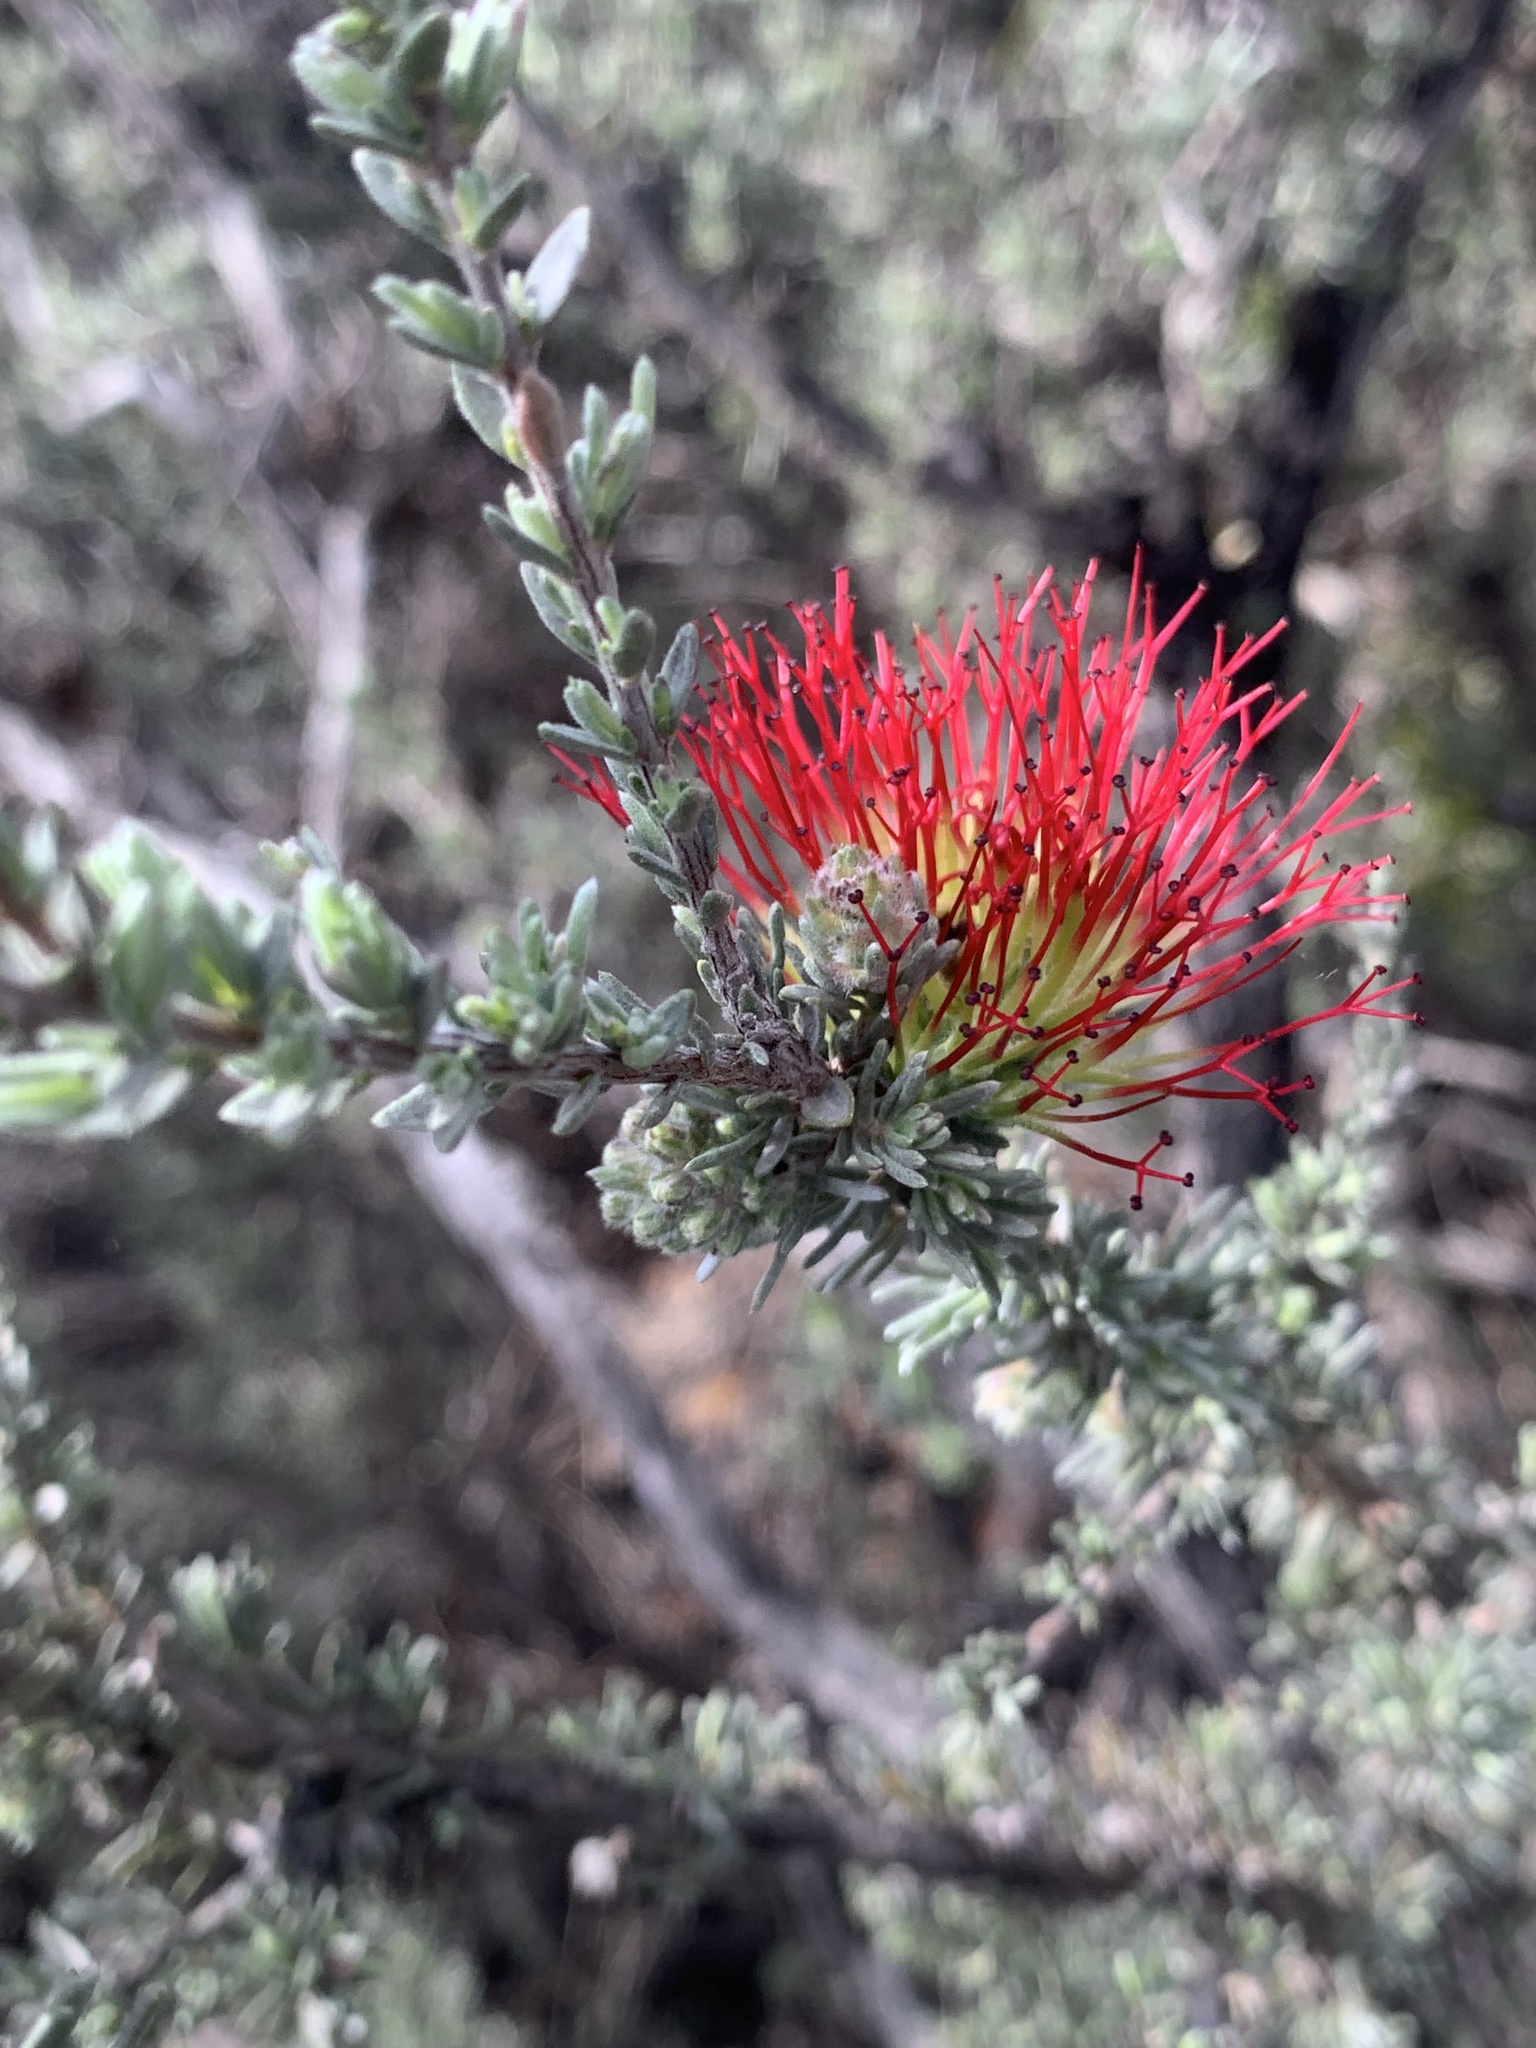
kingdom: Plantae
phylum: Tracheophyta
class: Magnoliopsida
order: Myrtales
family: Myrtaceae
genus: Melaleuca
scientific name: Melaleuca cinerea
